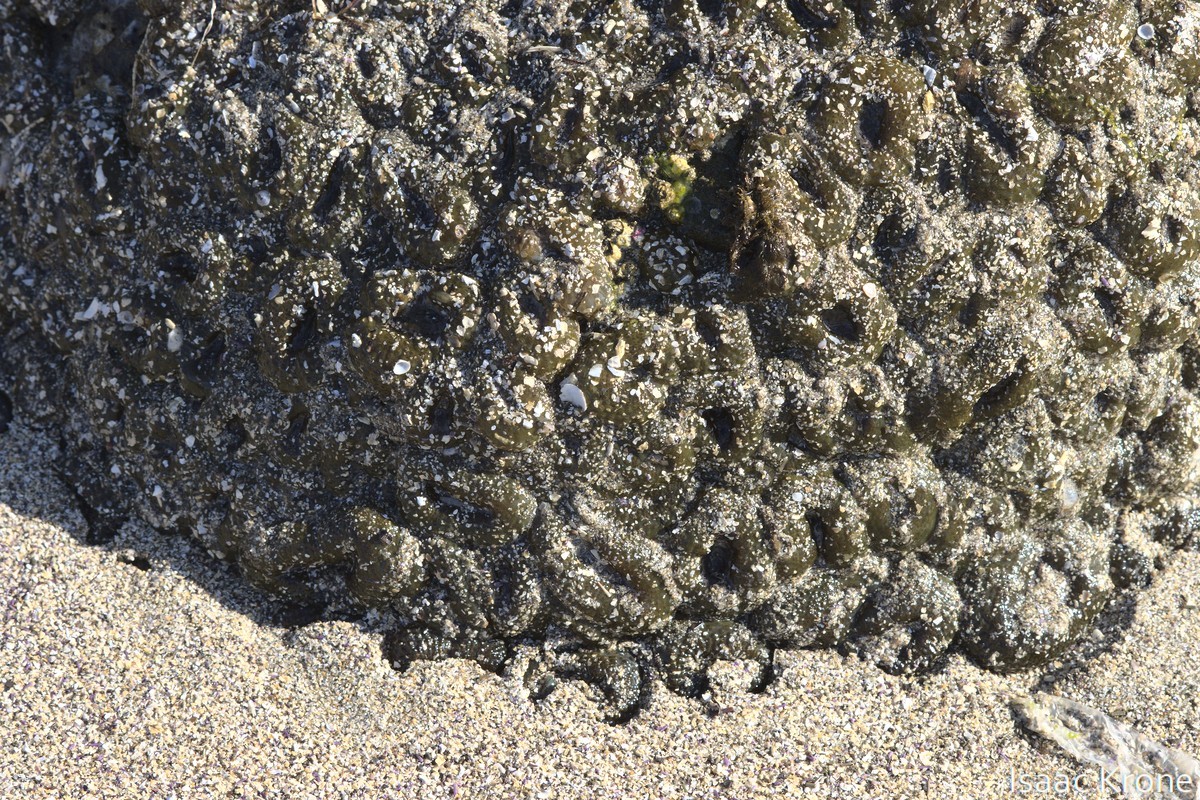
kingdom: Animalia
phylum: Cnidaria
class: Anthozoa
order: Actiniaria
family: Actiniidae
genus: Anthopleura
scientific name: Anthopleura elegantissima
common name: Clonal anemone
